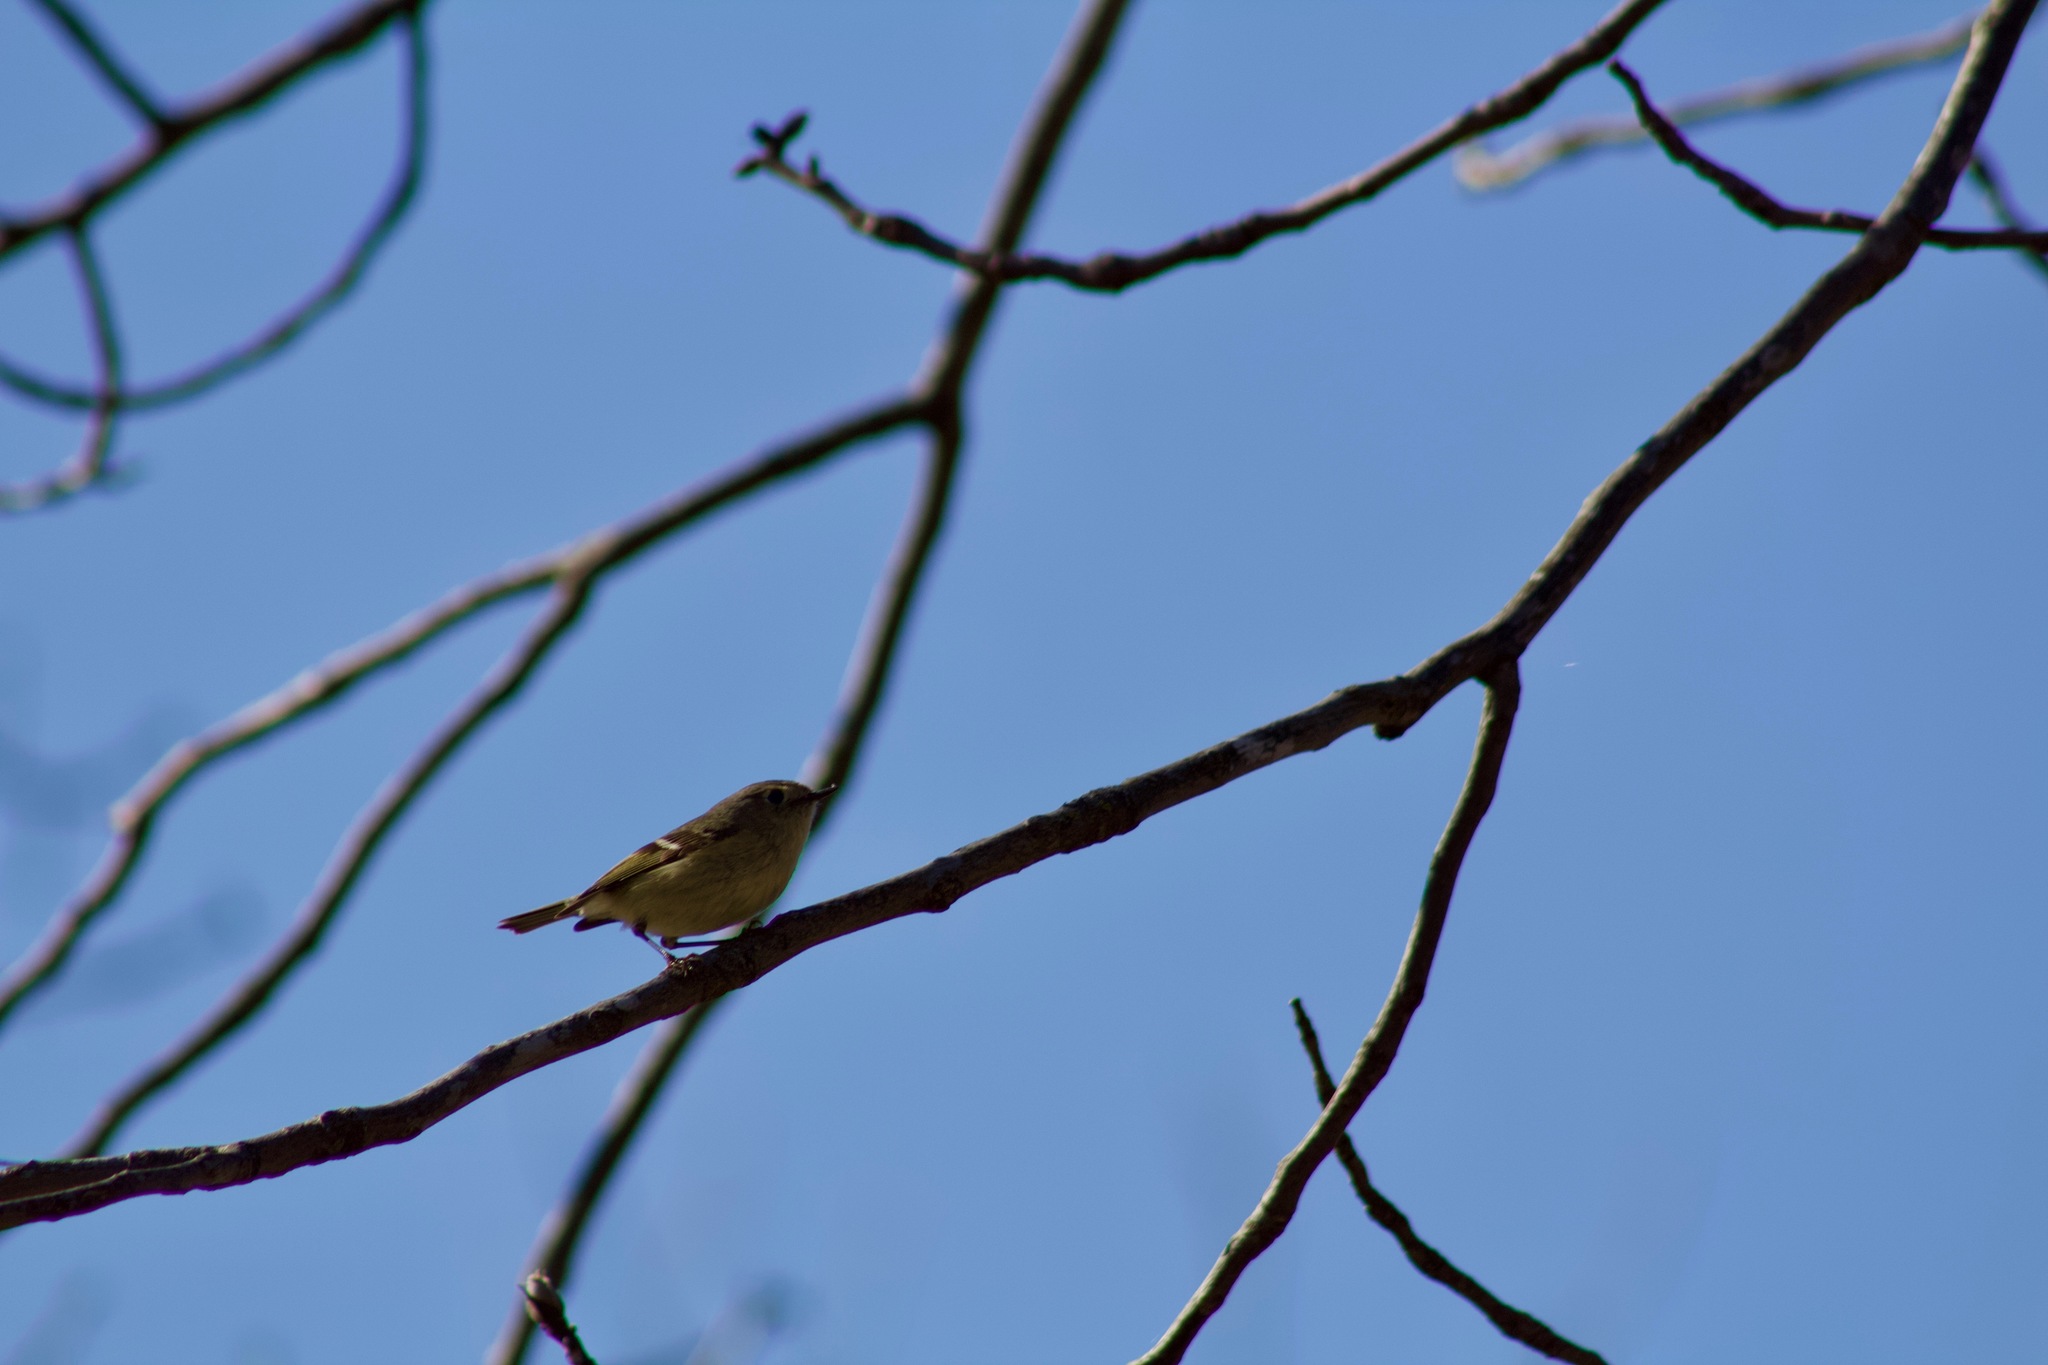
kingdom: Animalia
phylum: Chordata
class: Aves
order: Passeriformes
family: Regulidae
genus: Regulus
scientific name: Regulus calendula
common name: Ruby-crowned kinglet
